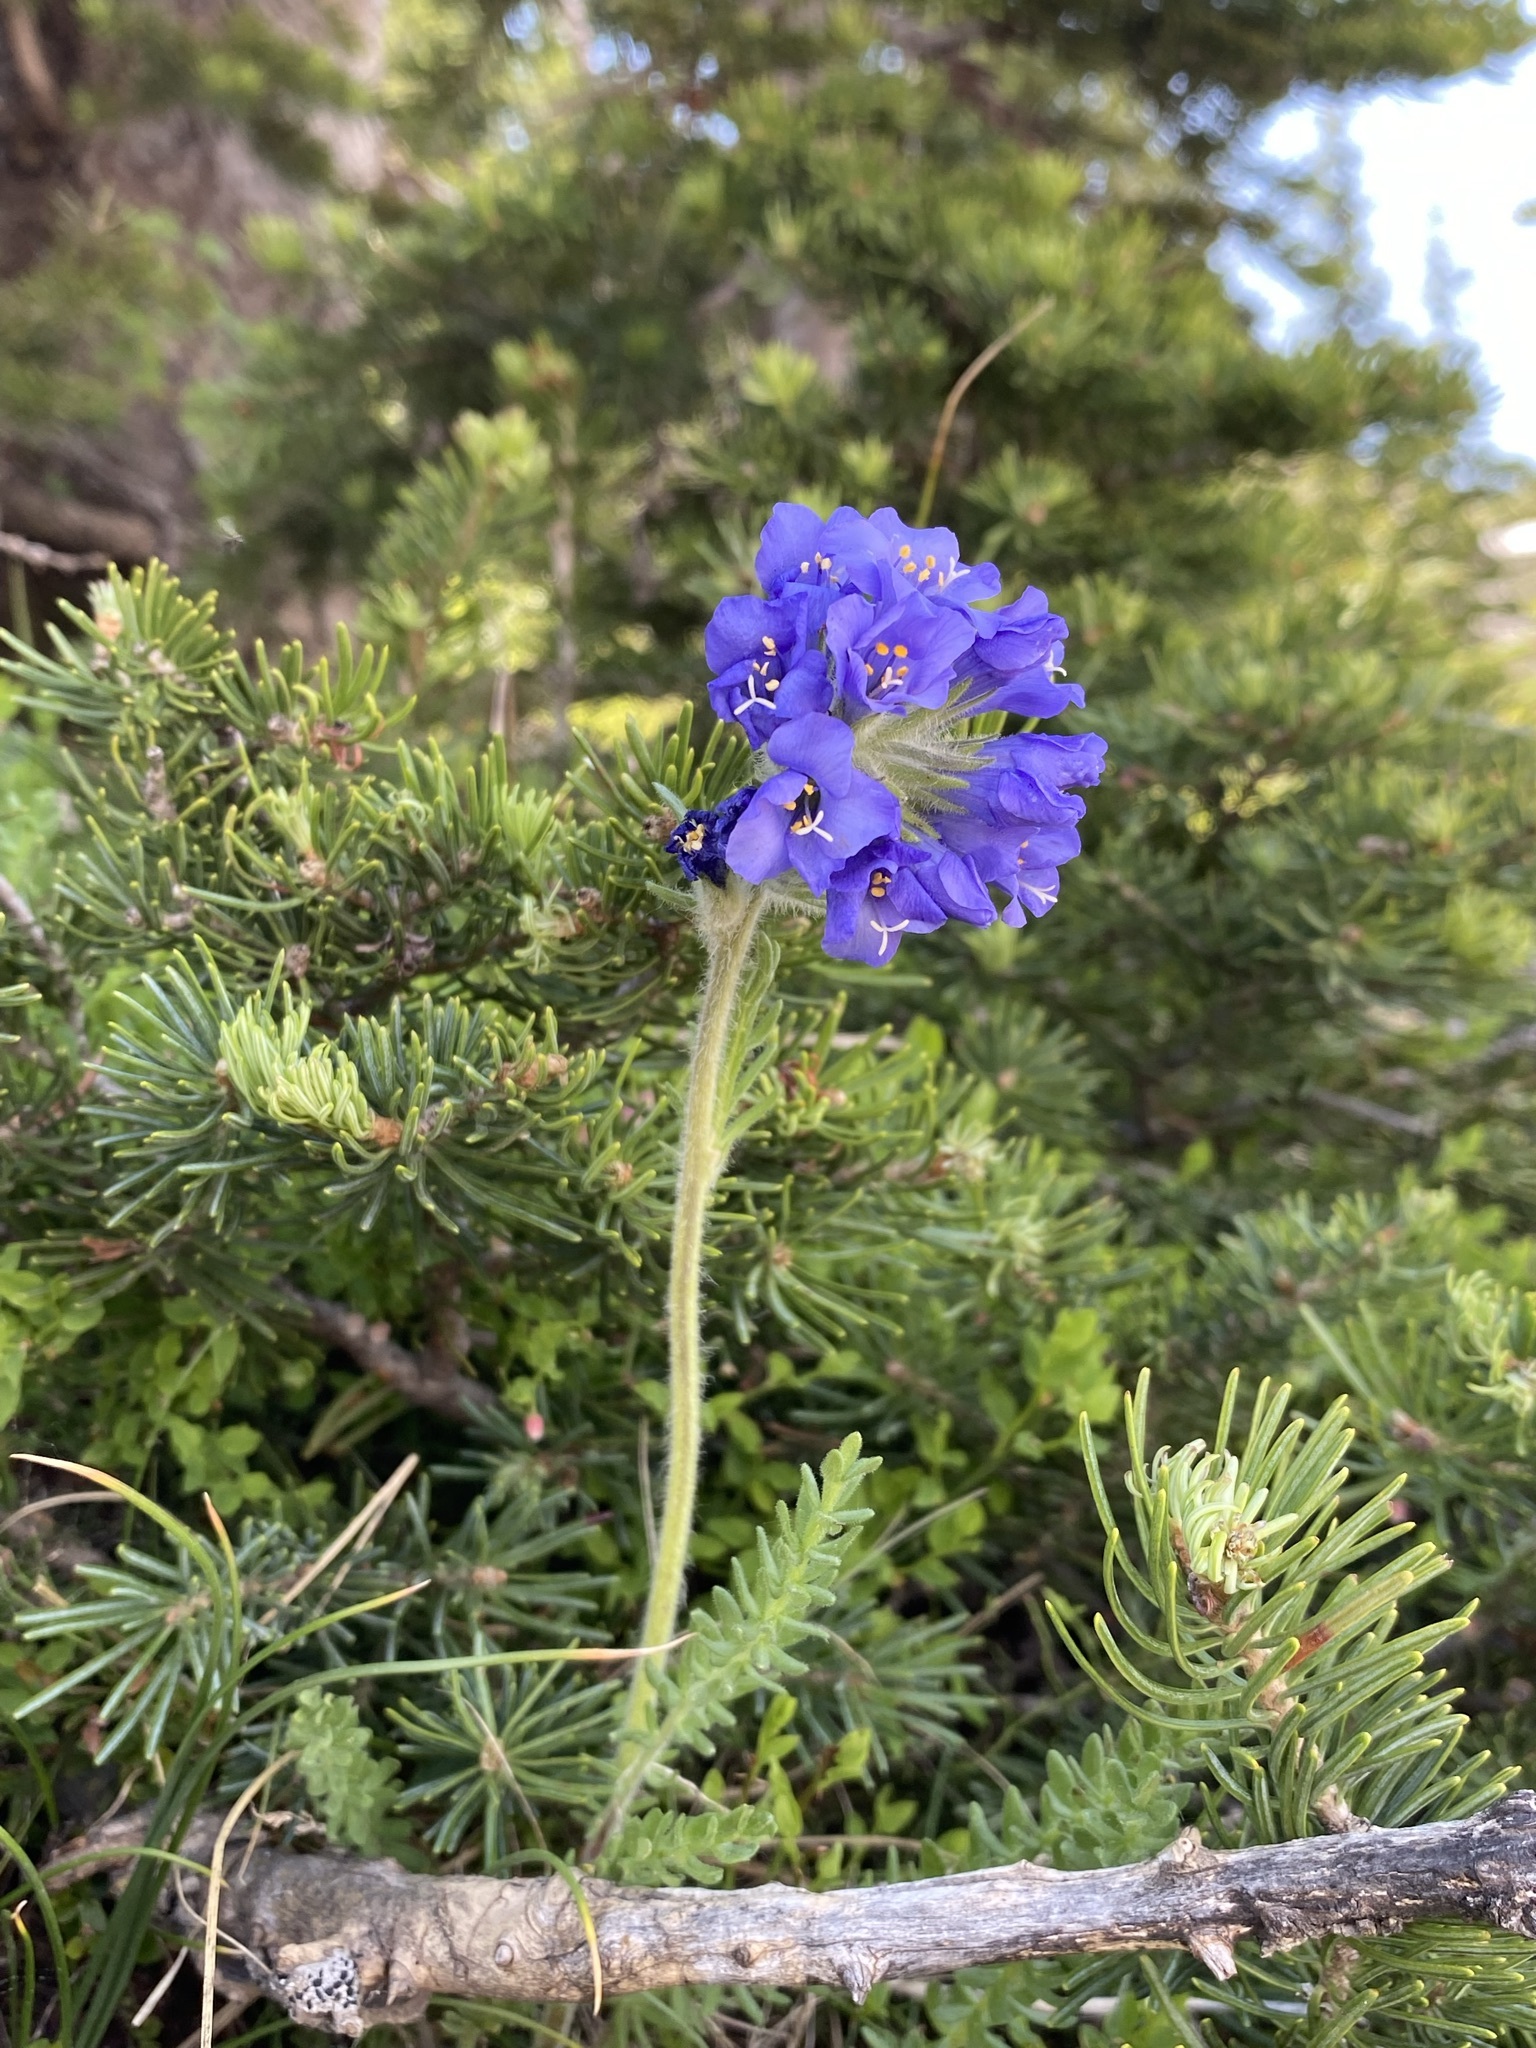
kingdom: Plantae
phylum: Tracheophyta
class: Magnoliopsida
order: Ericales
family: Polemoniaceae
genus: Polemonium
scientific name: Polemonium viscosum
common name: Skunk jacob's-ladder
